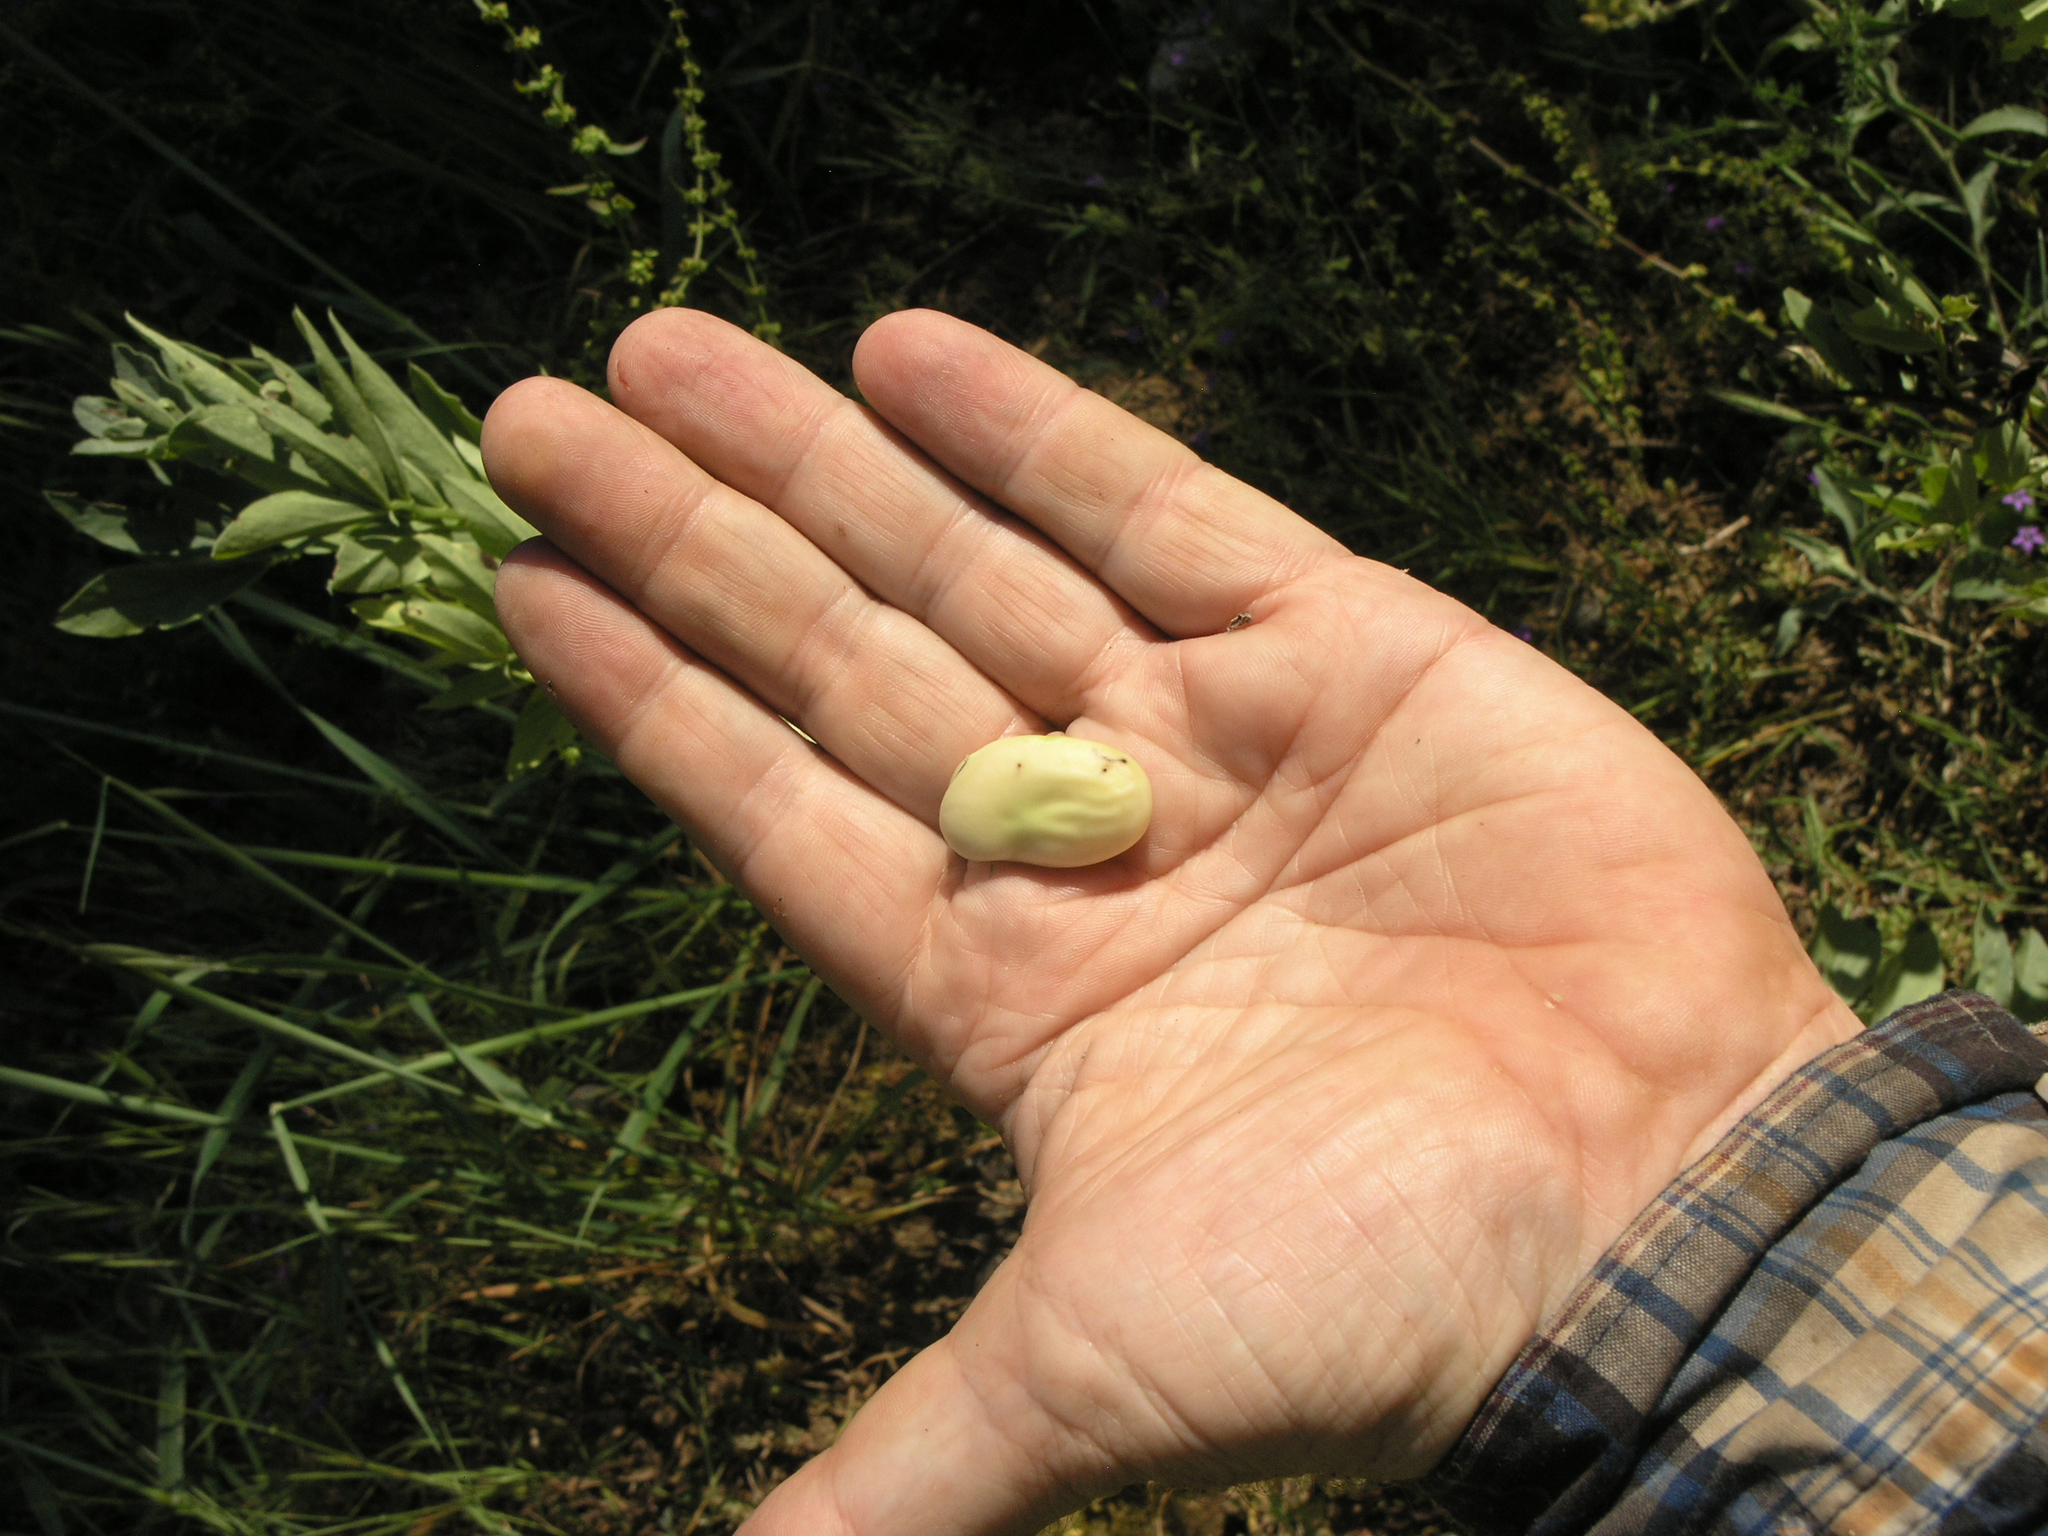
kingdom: Plantae
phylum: Tracheophyta
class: Magnoliopsida
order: Fabales
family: Fabaceae
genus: Vicia
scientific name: Vicia faba
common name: Broad bean
